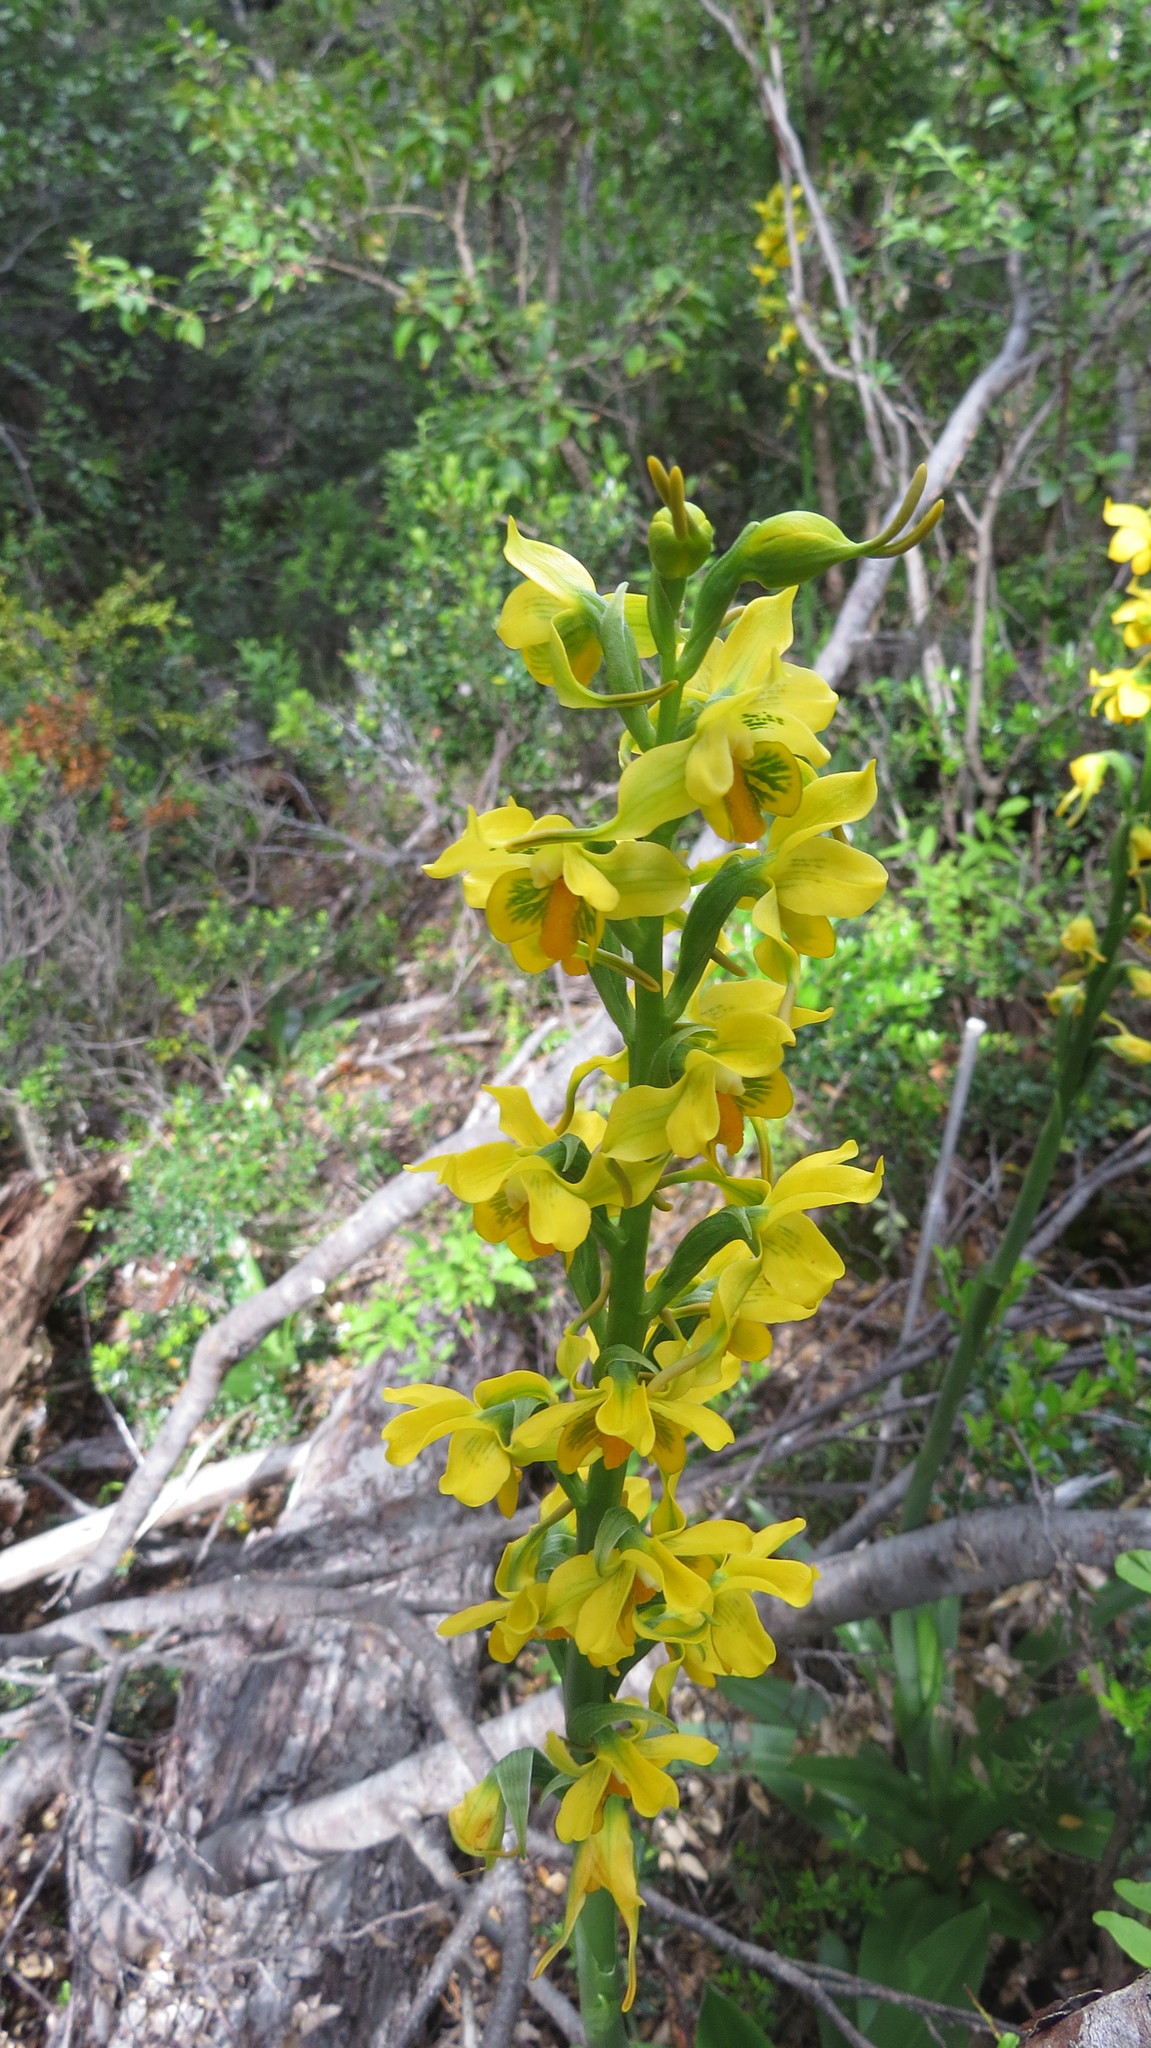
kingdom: Plantae
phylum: Tracheophyta
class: Liliopsida
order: Asparagales
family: Orchidaceae
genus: Gavilea
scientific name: Gavilea odoratissima
